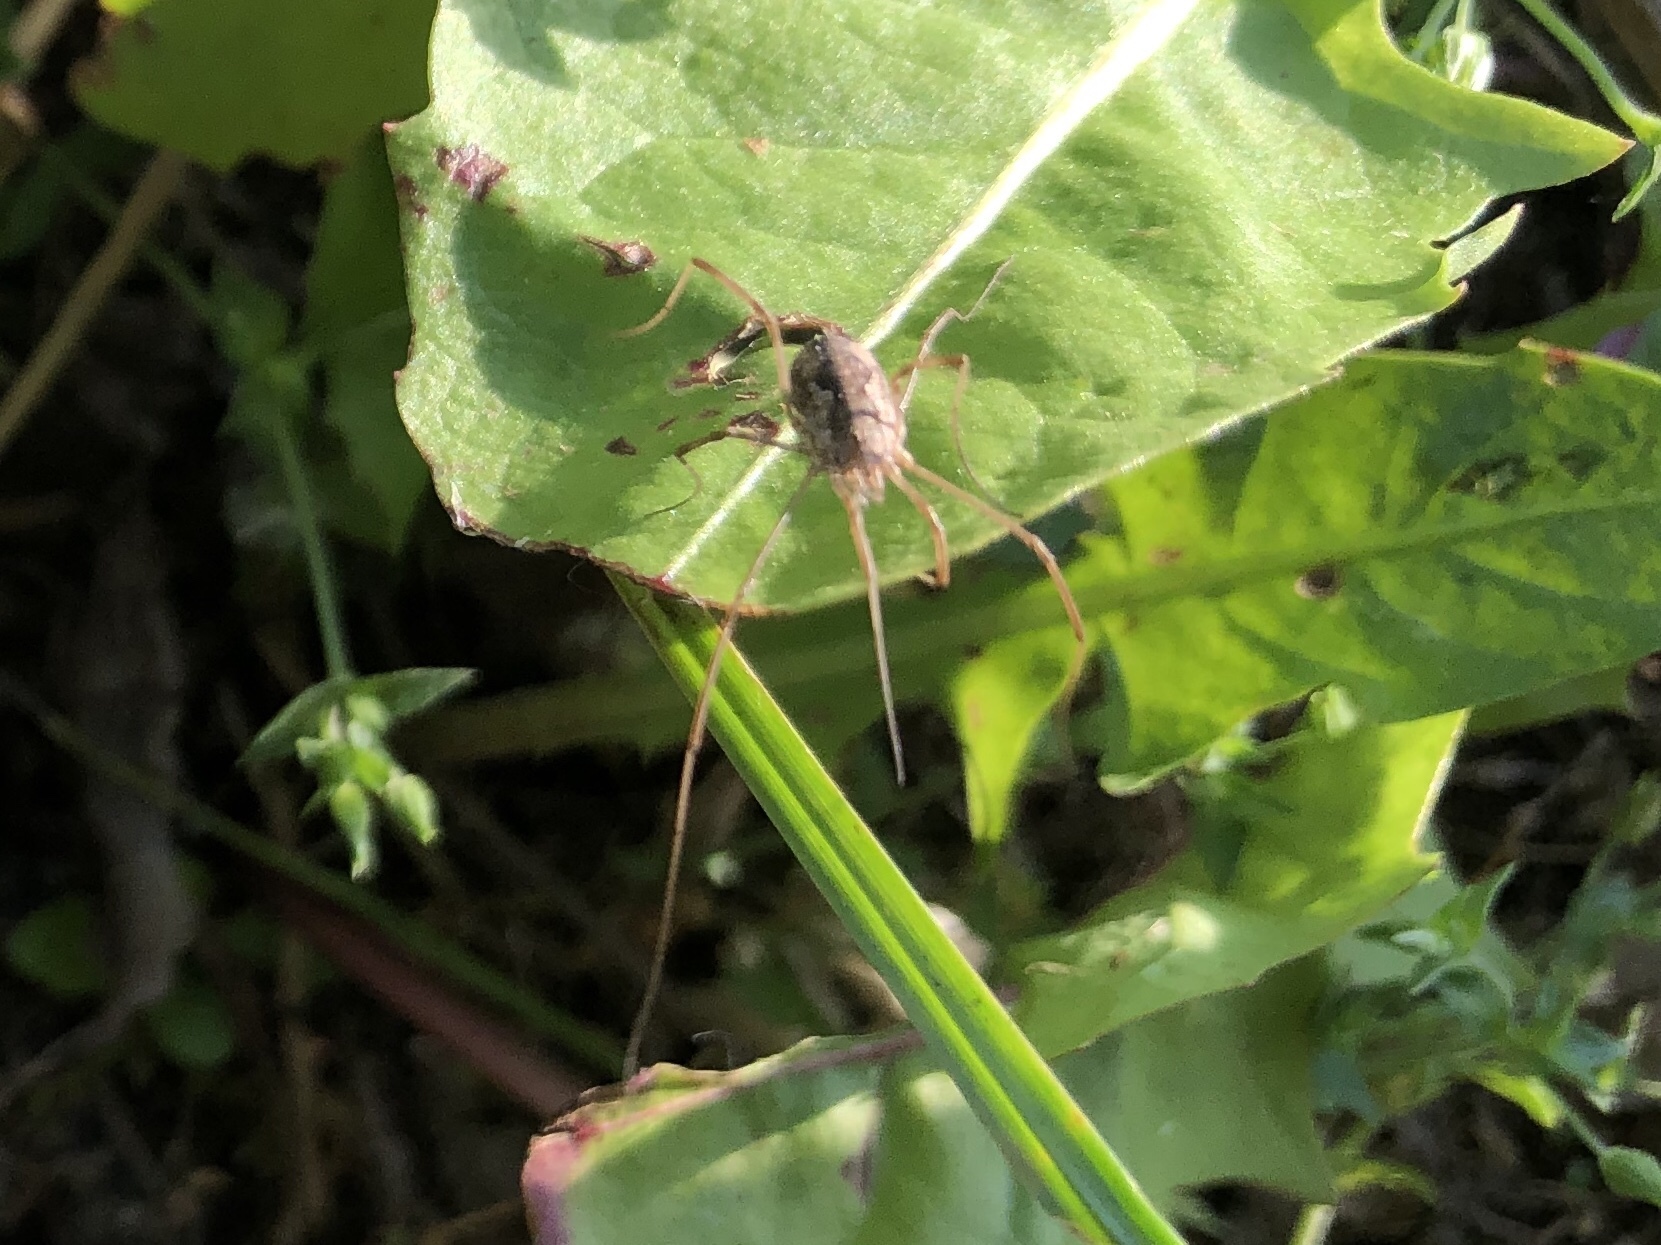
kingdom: Animalia
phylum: Arthropoda
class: Arachnida
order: Opiliones
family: Phalangiidae
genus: Phalangium
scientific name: Phalangium opilio
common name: Daddy longleg
